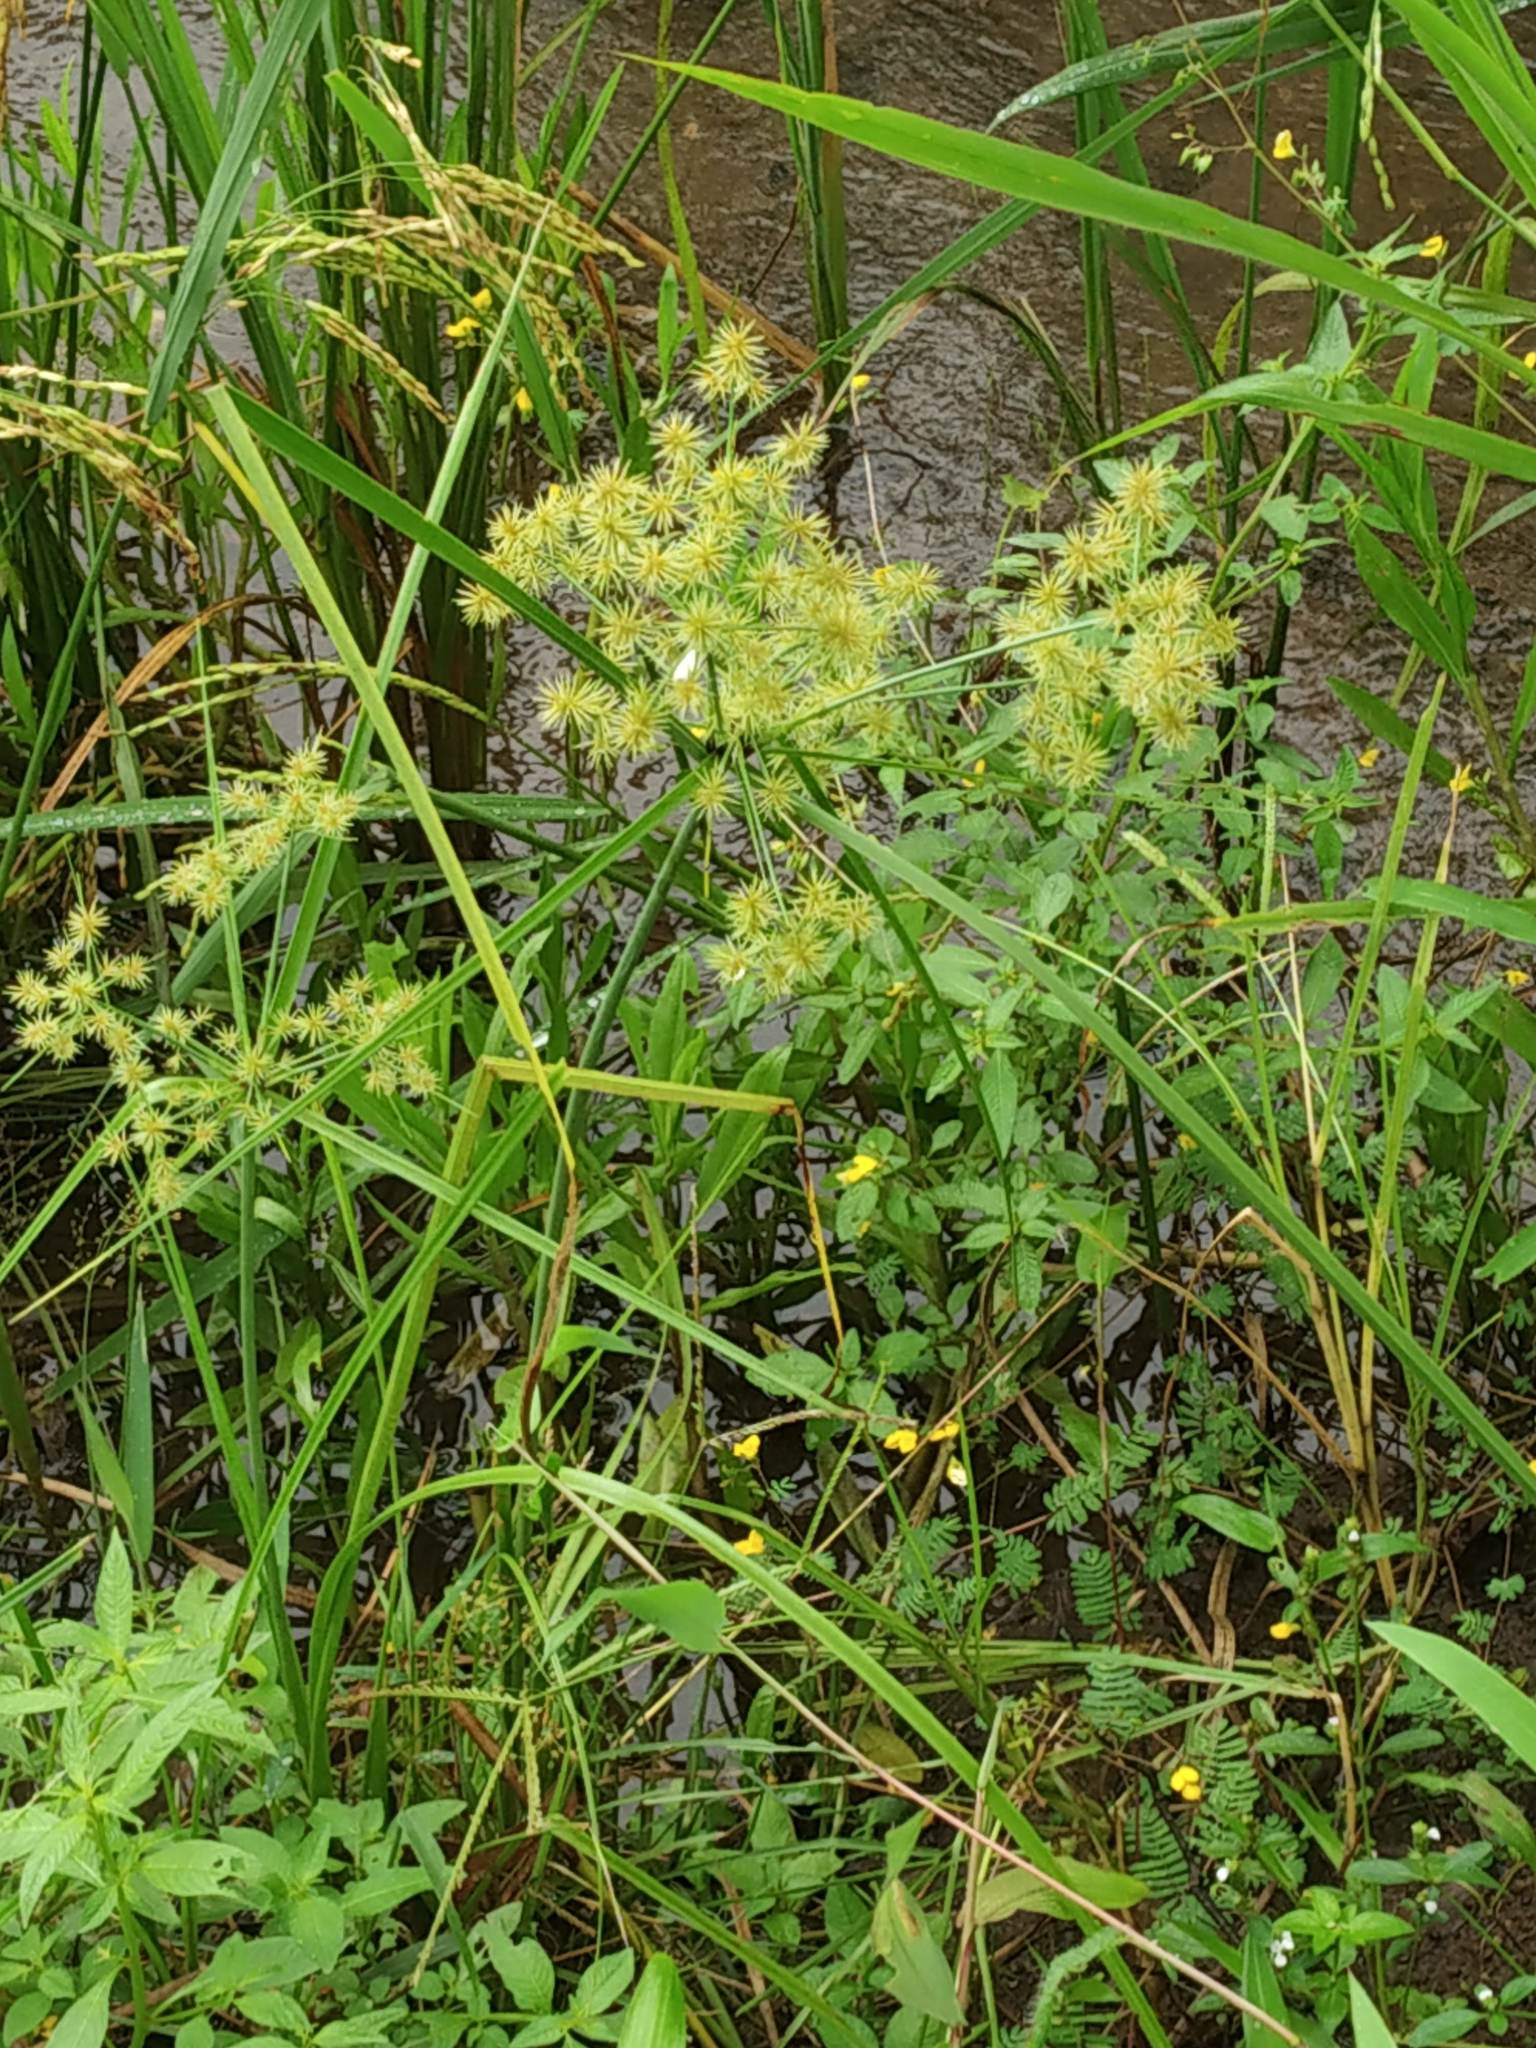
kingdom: Plantae
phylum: Tracheophyta
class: Liliopsida
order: Poales
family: Cyperaceae
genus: Cyperus
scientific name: Cyperus alternifolius
